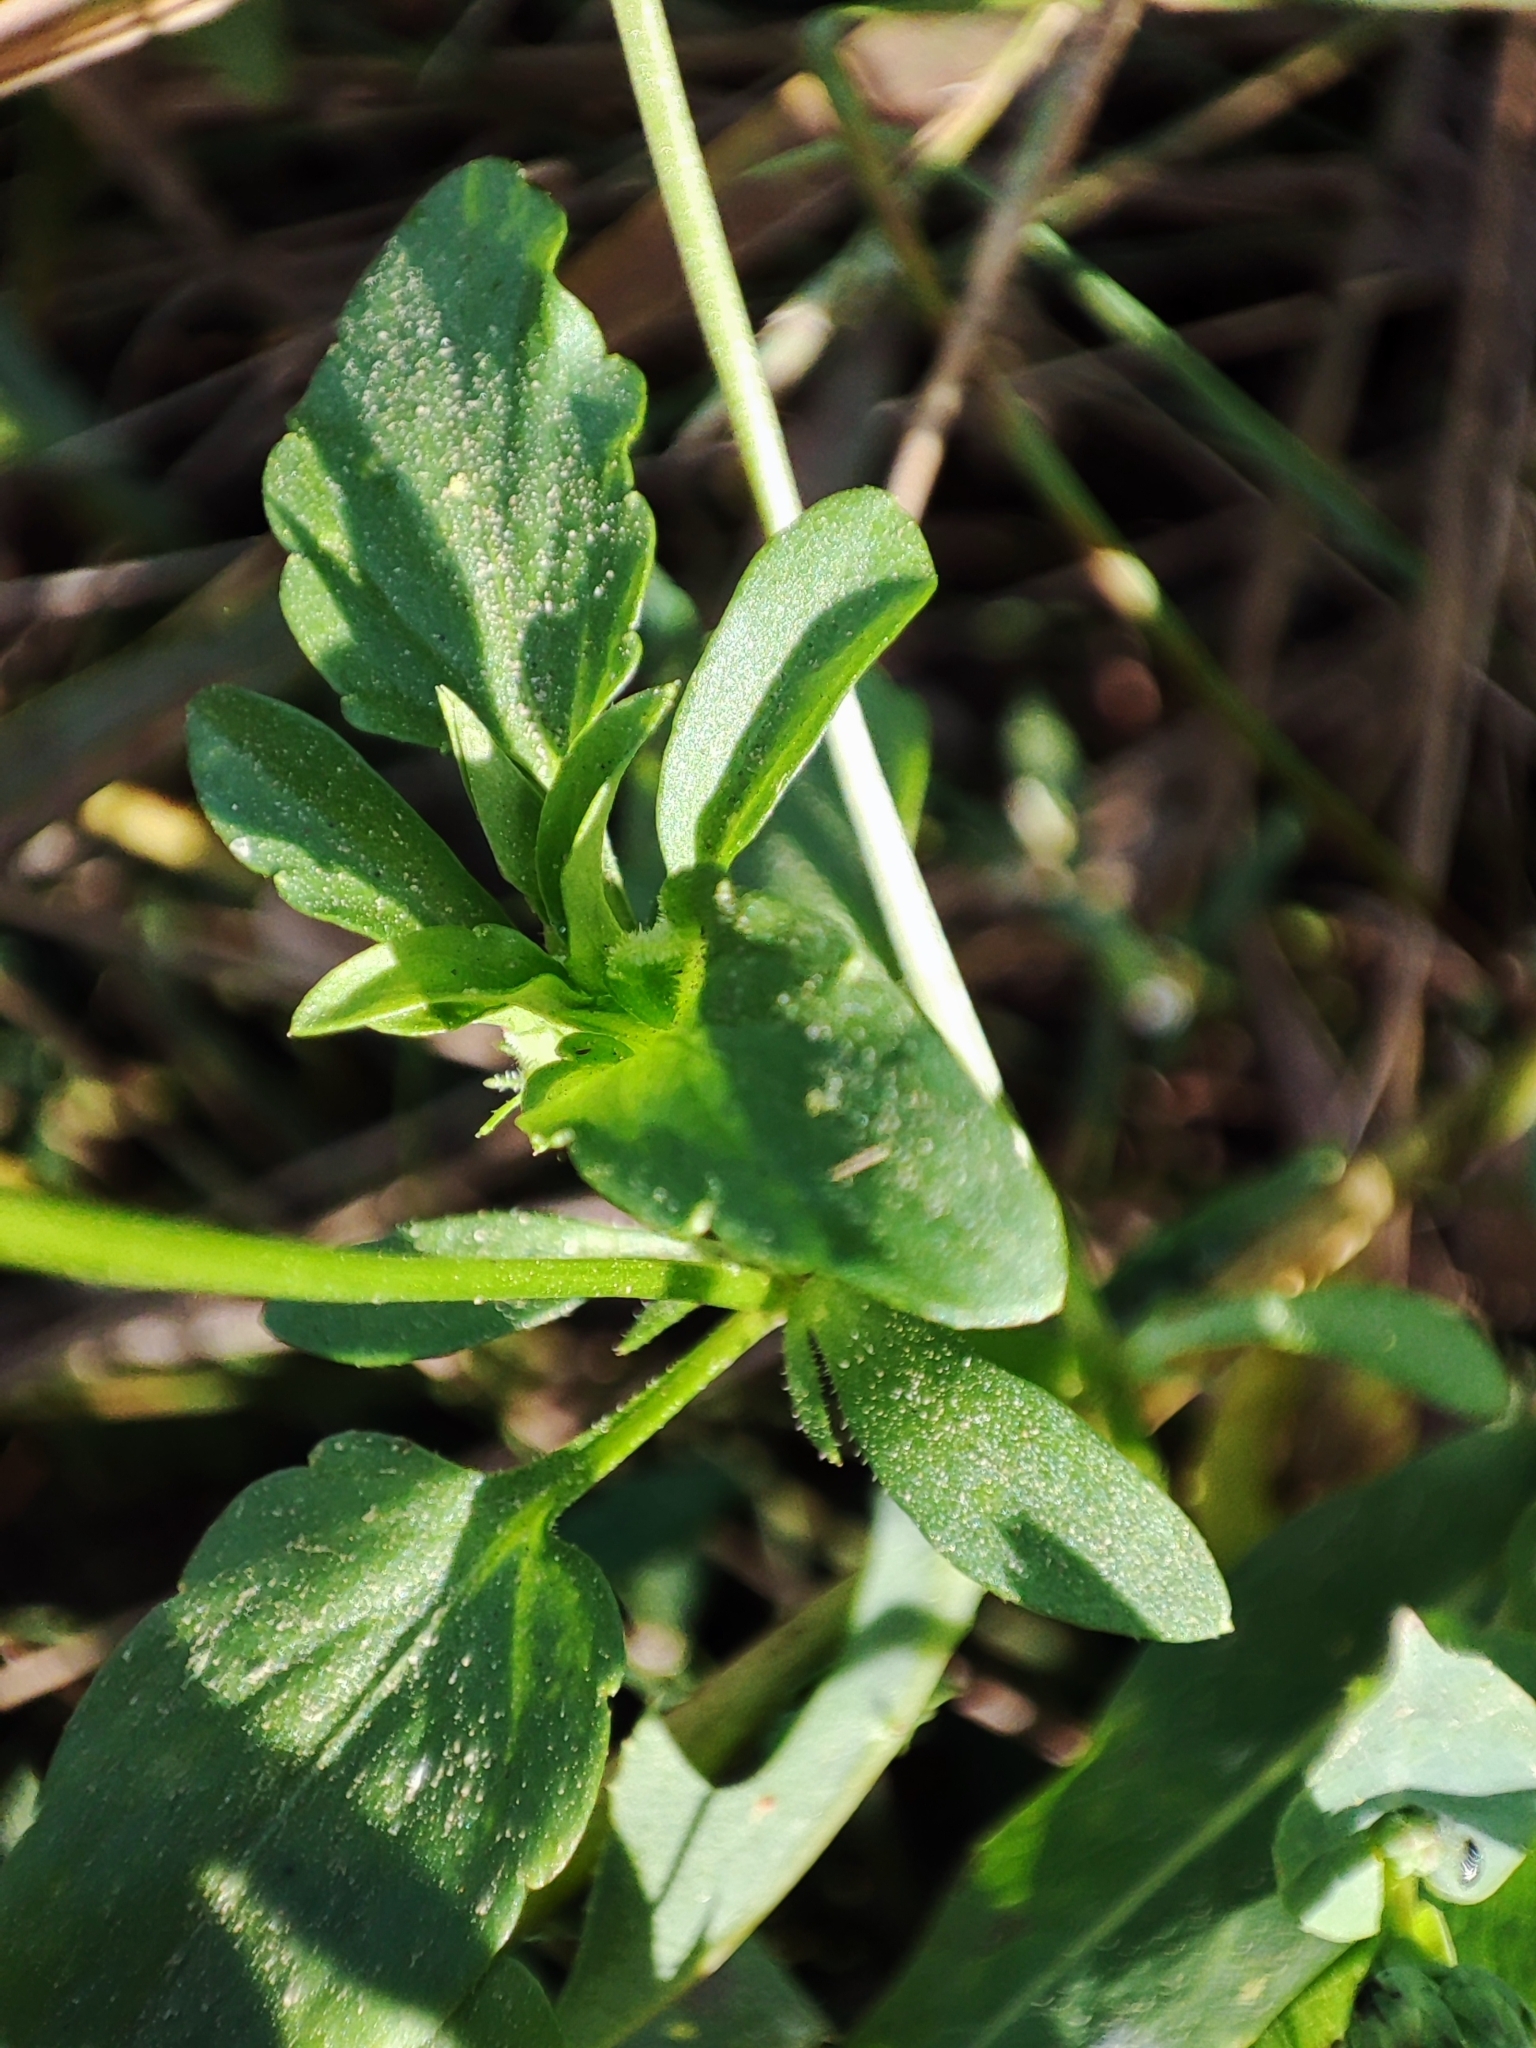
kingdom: Plantae
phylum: Tracheophyta
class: Magnoliopsida
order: Malpighiales
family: Violaceae
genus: Viola
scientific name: Viola arvensis
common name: Field pansy
